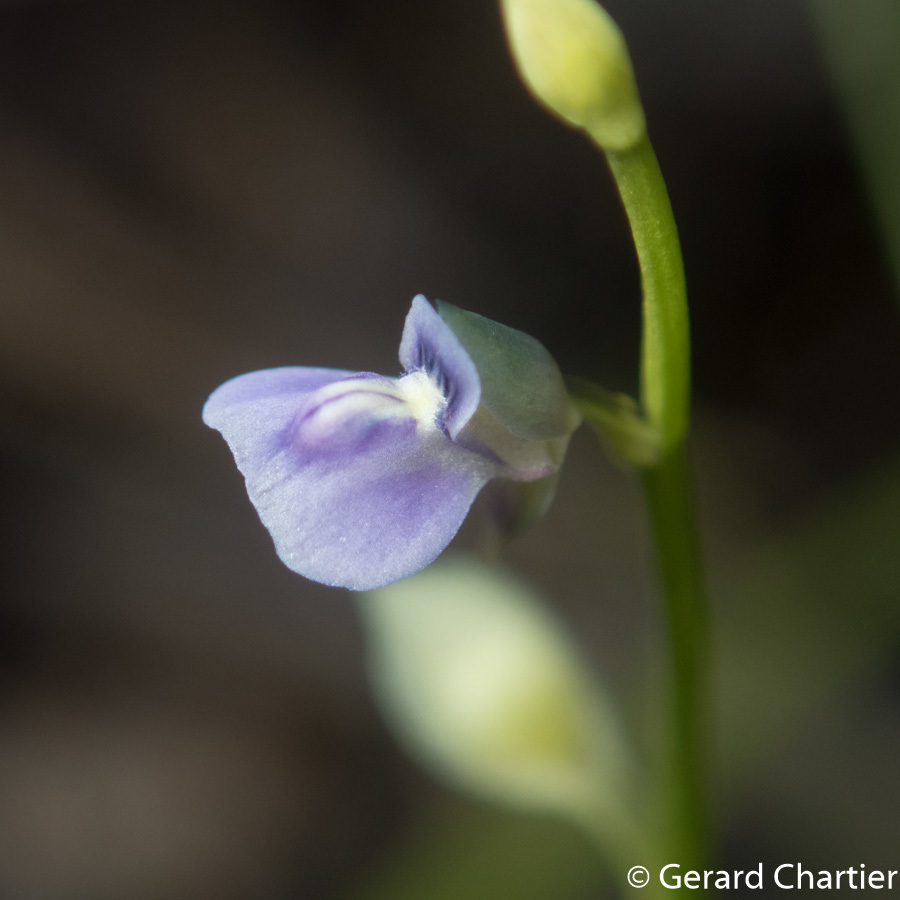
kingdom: Plantae
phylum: Tracheophyta
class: Magnoliopsida
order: Lamiales
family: Lentibulariaceae
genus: Utricularia
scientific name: Utricularia uliginosa
